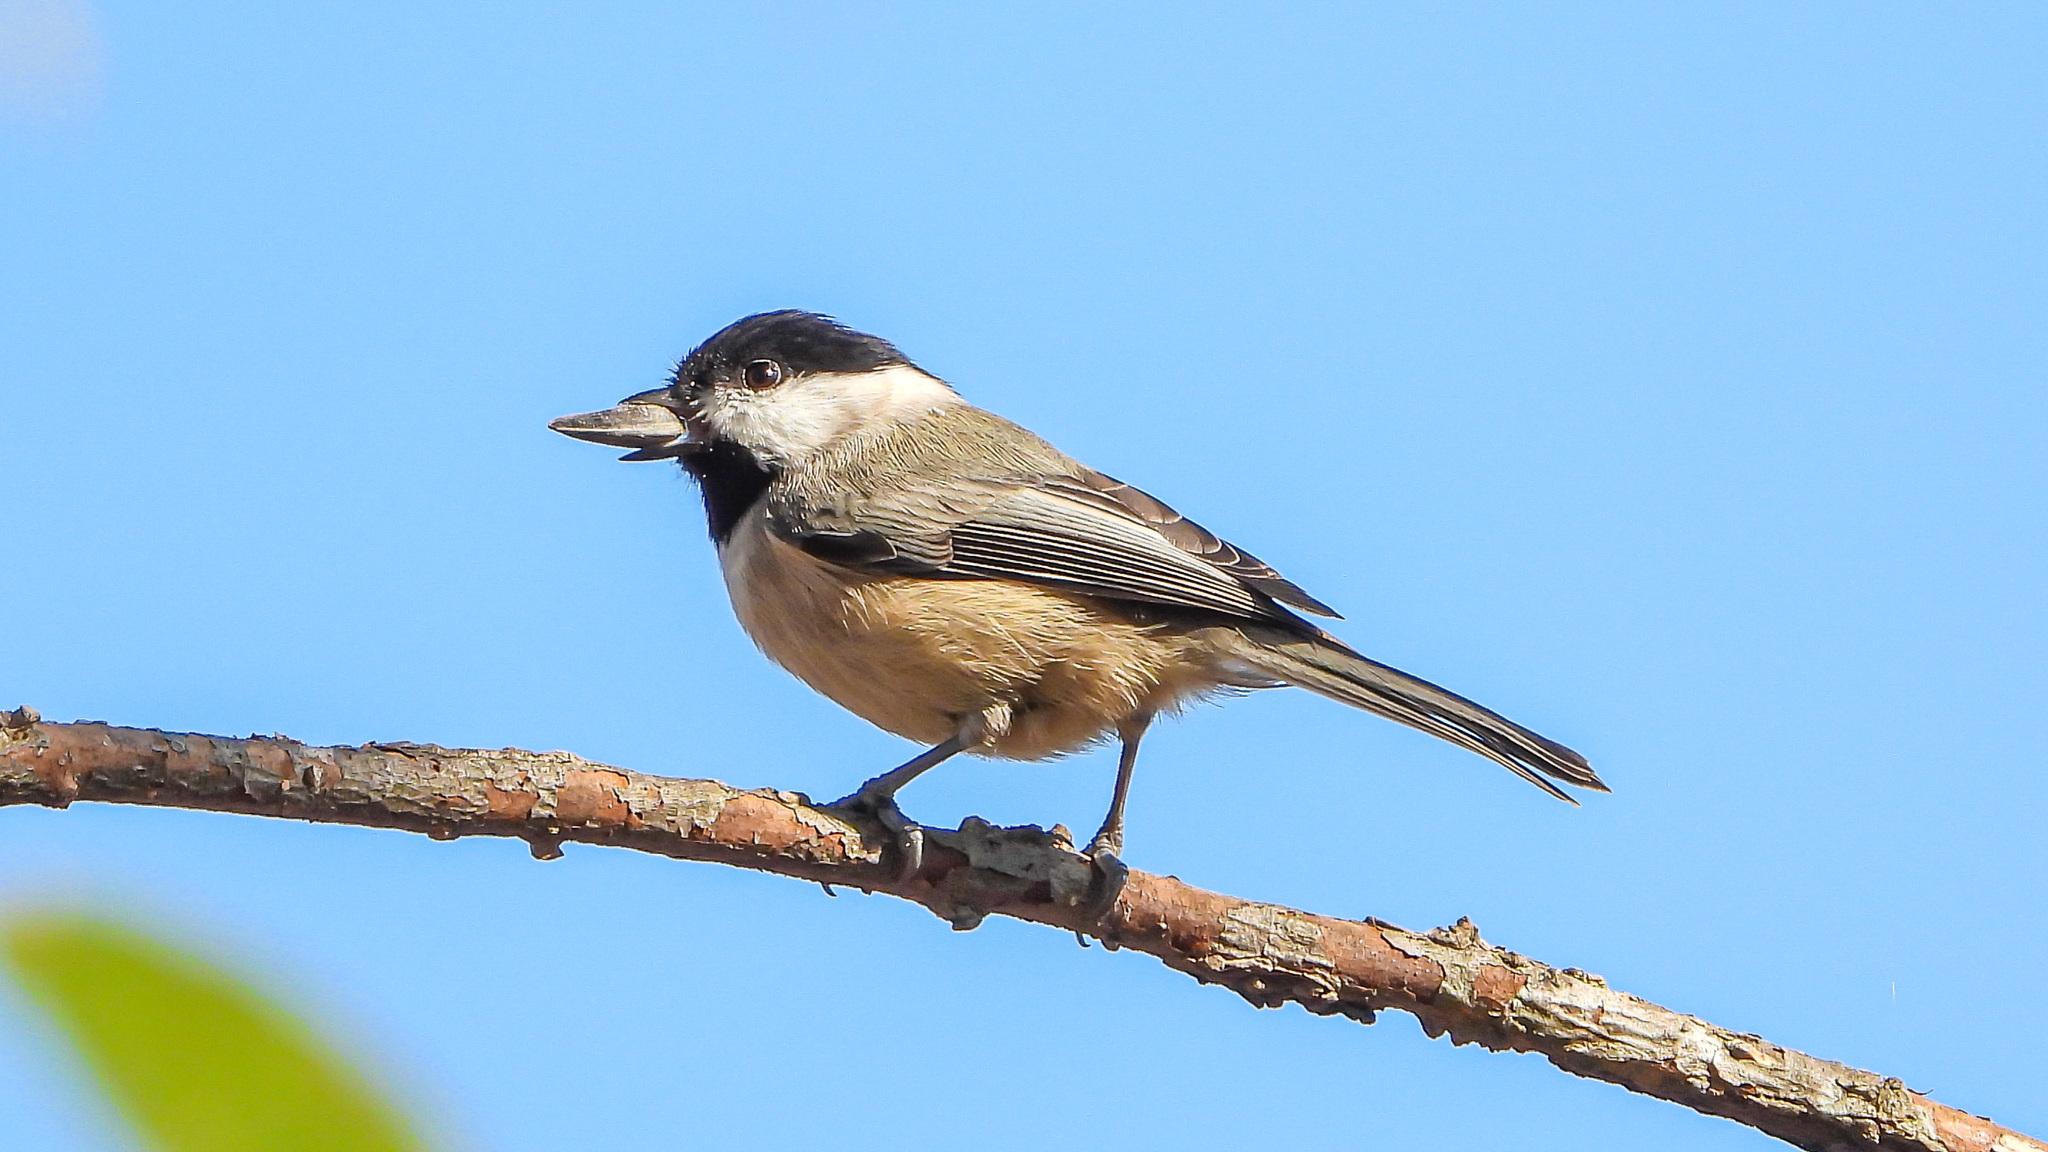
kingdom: Animalia
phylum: Chordata
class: Aves
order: Passeriformes
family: Paridae
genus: Poecile
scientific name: Poecile carolinensis
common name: Carolina chickadee
